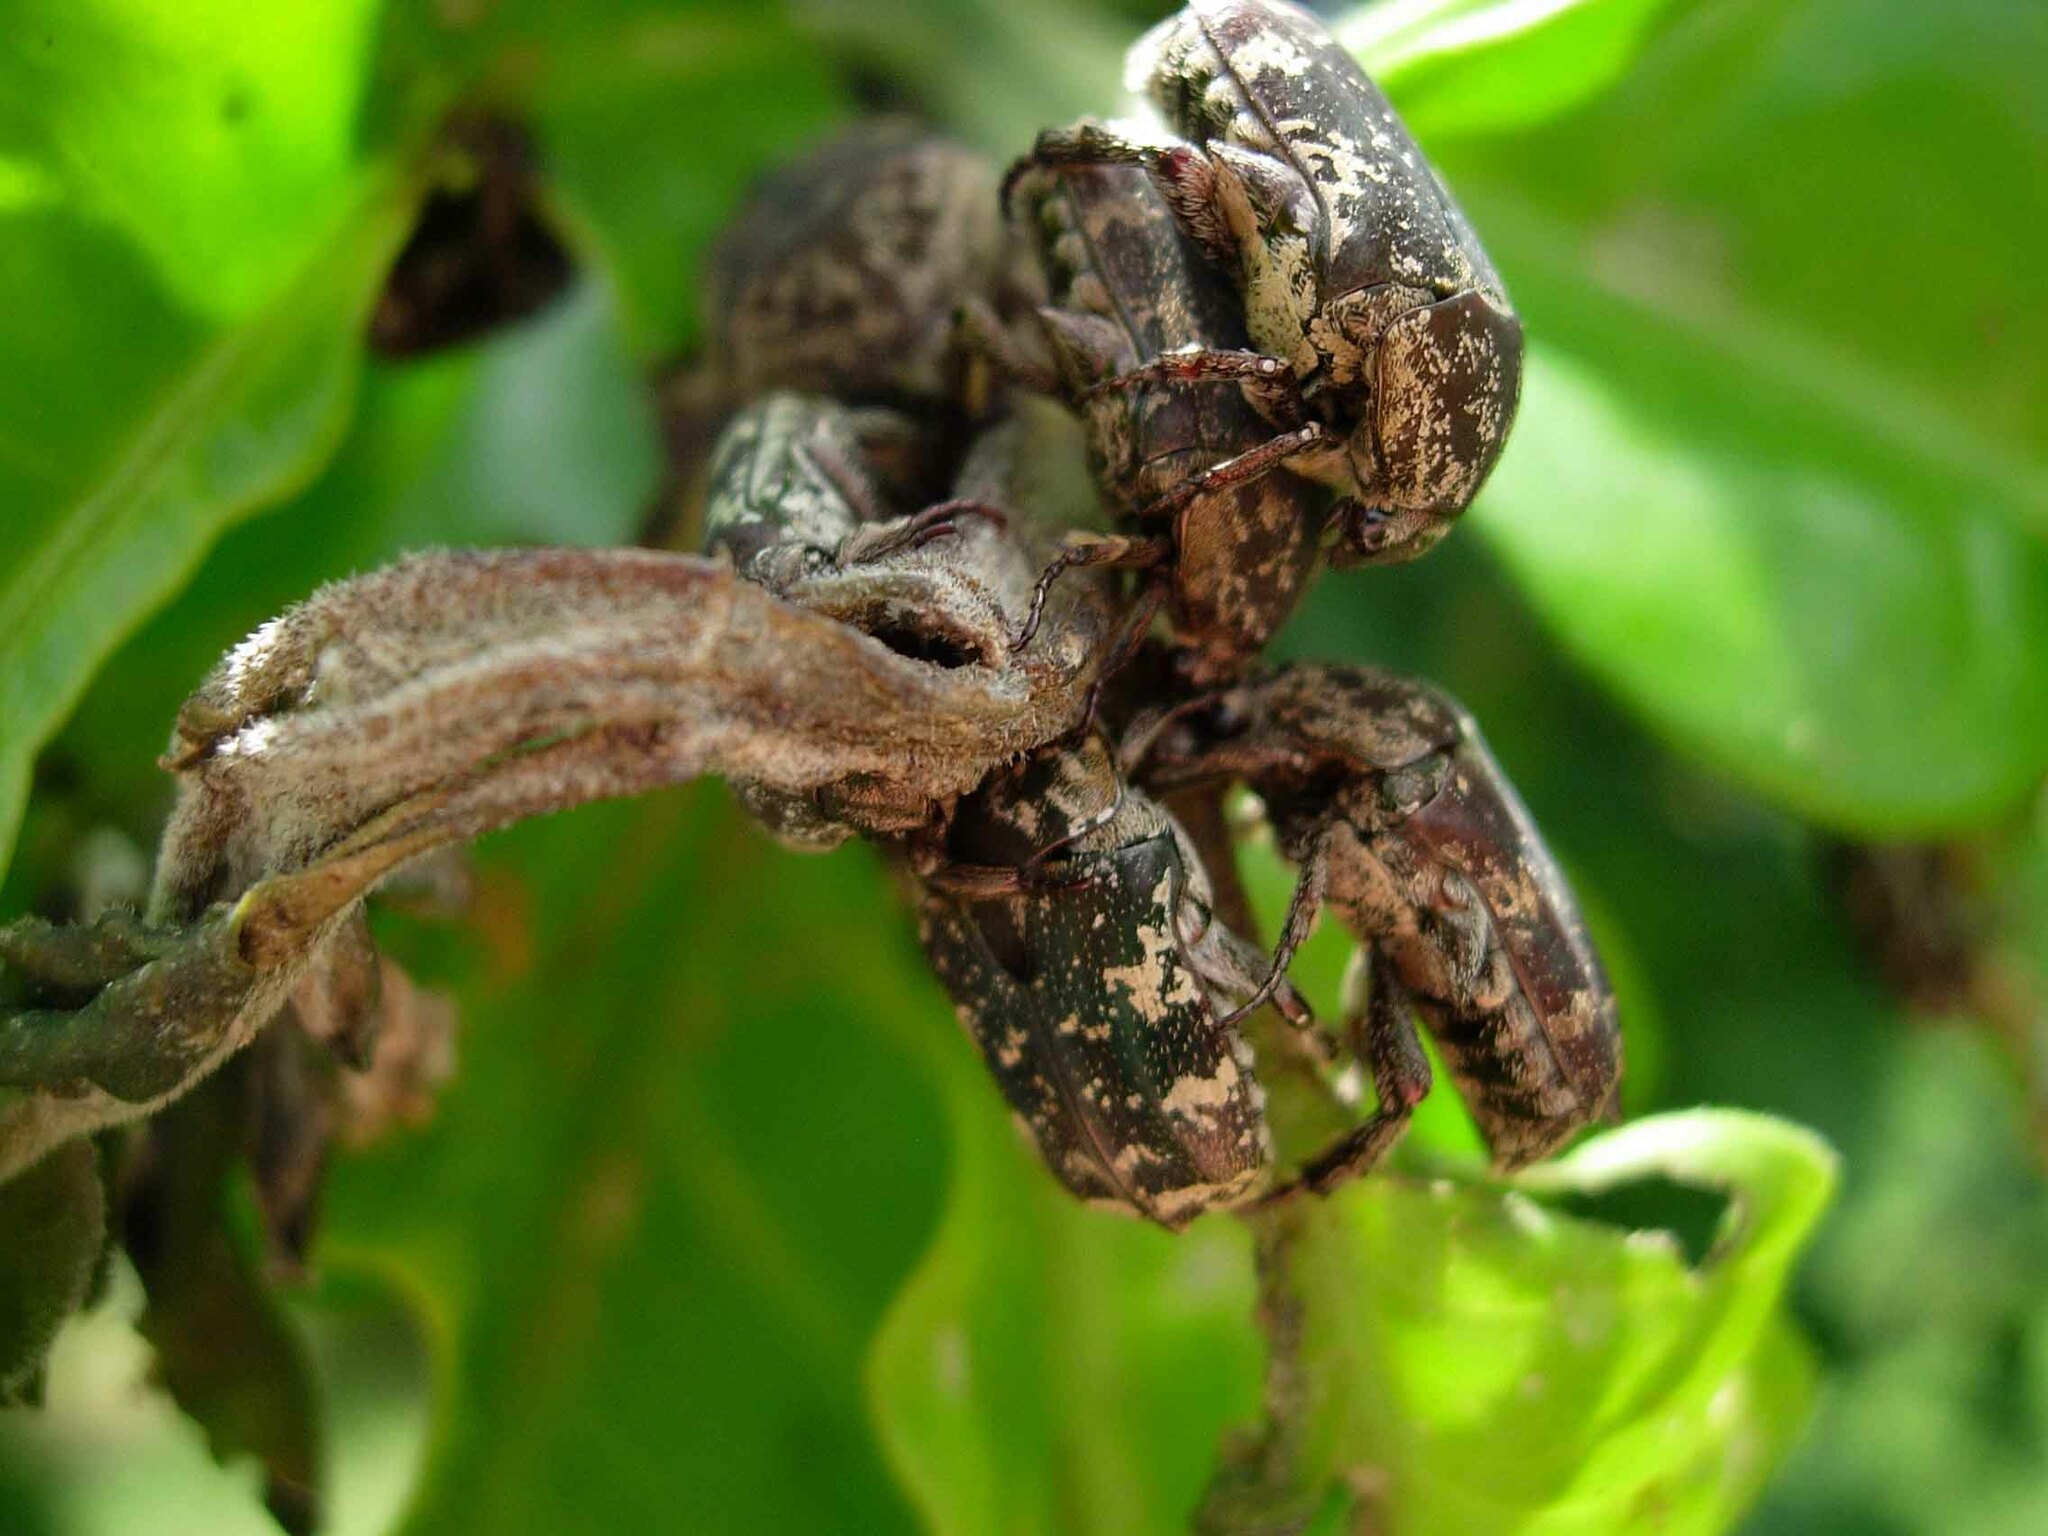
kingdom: Animalia
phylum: Arthropoda
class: Insecta
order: Coleoptera
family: Scarabaeidae
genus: Protaetia
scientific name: Protaetia fusca
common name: Mango flower beetle
